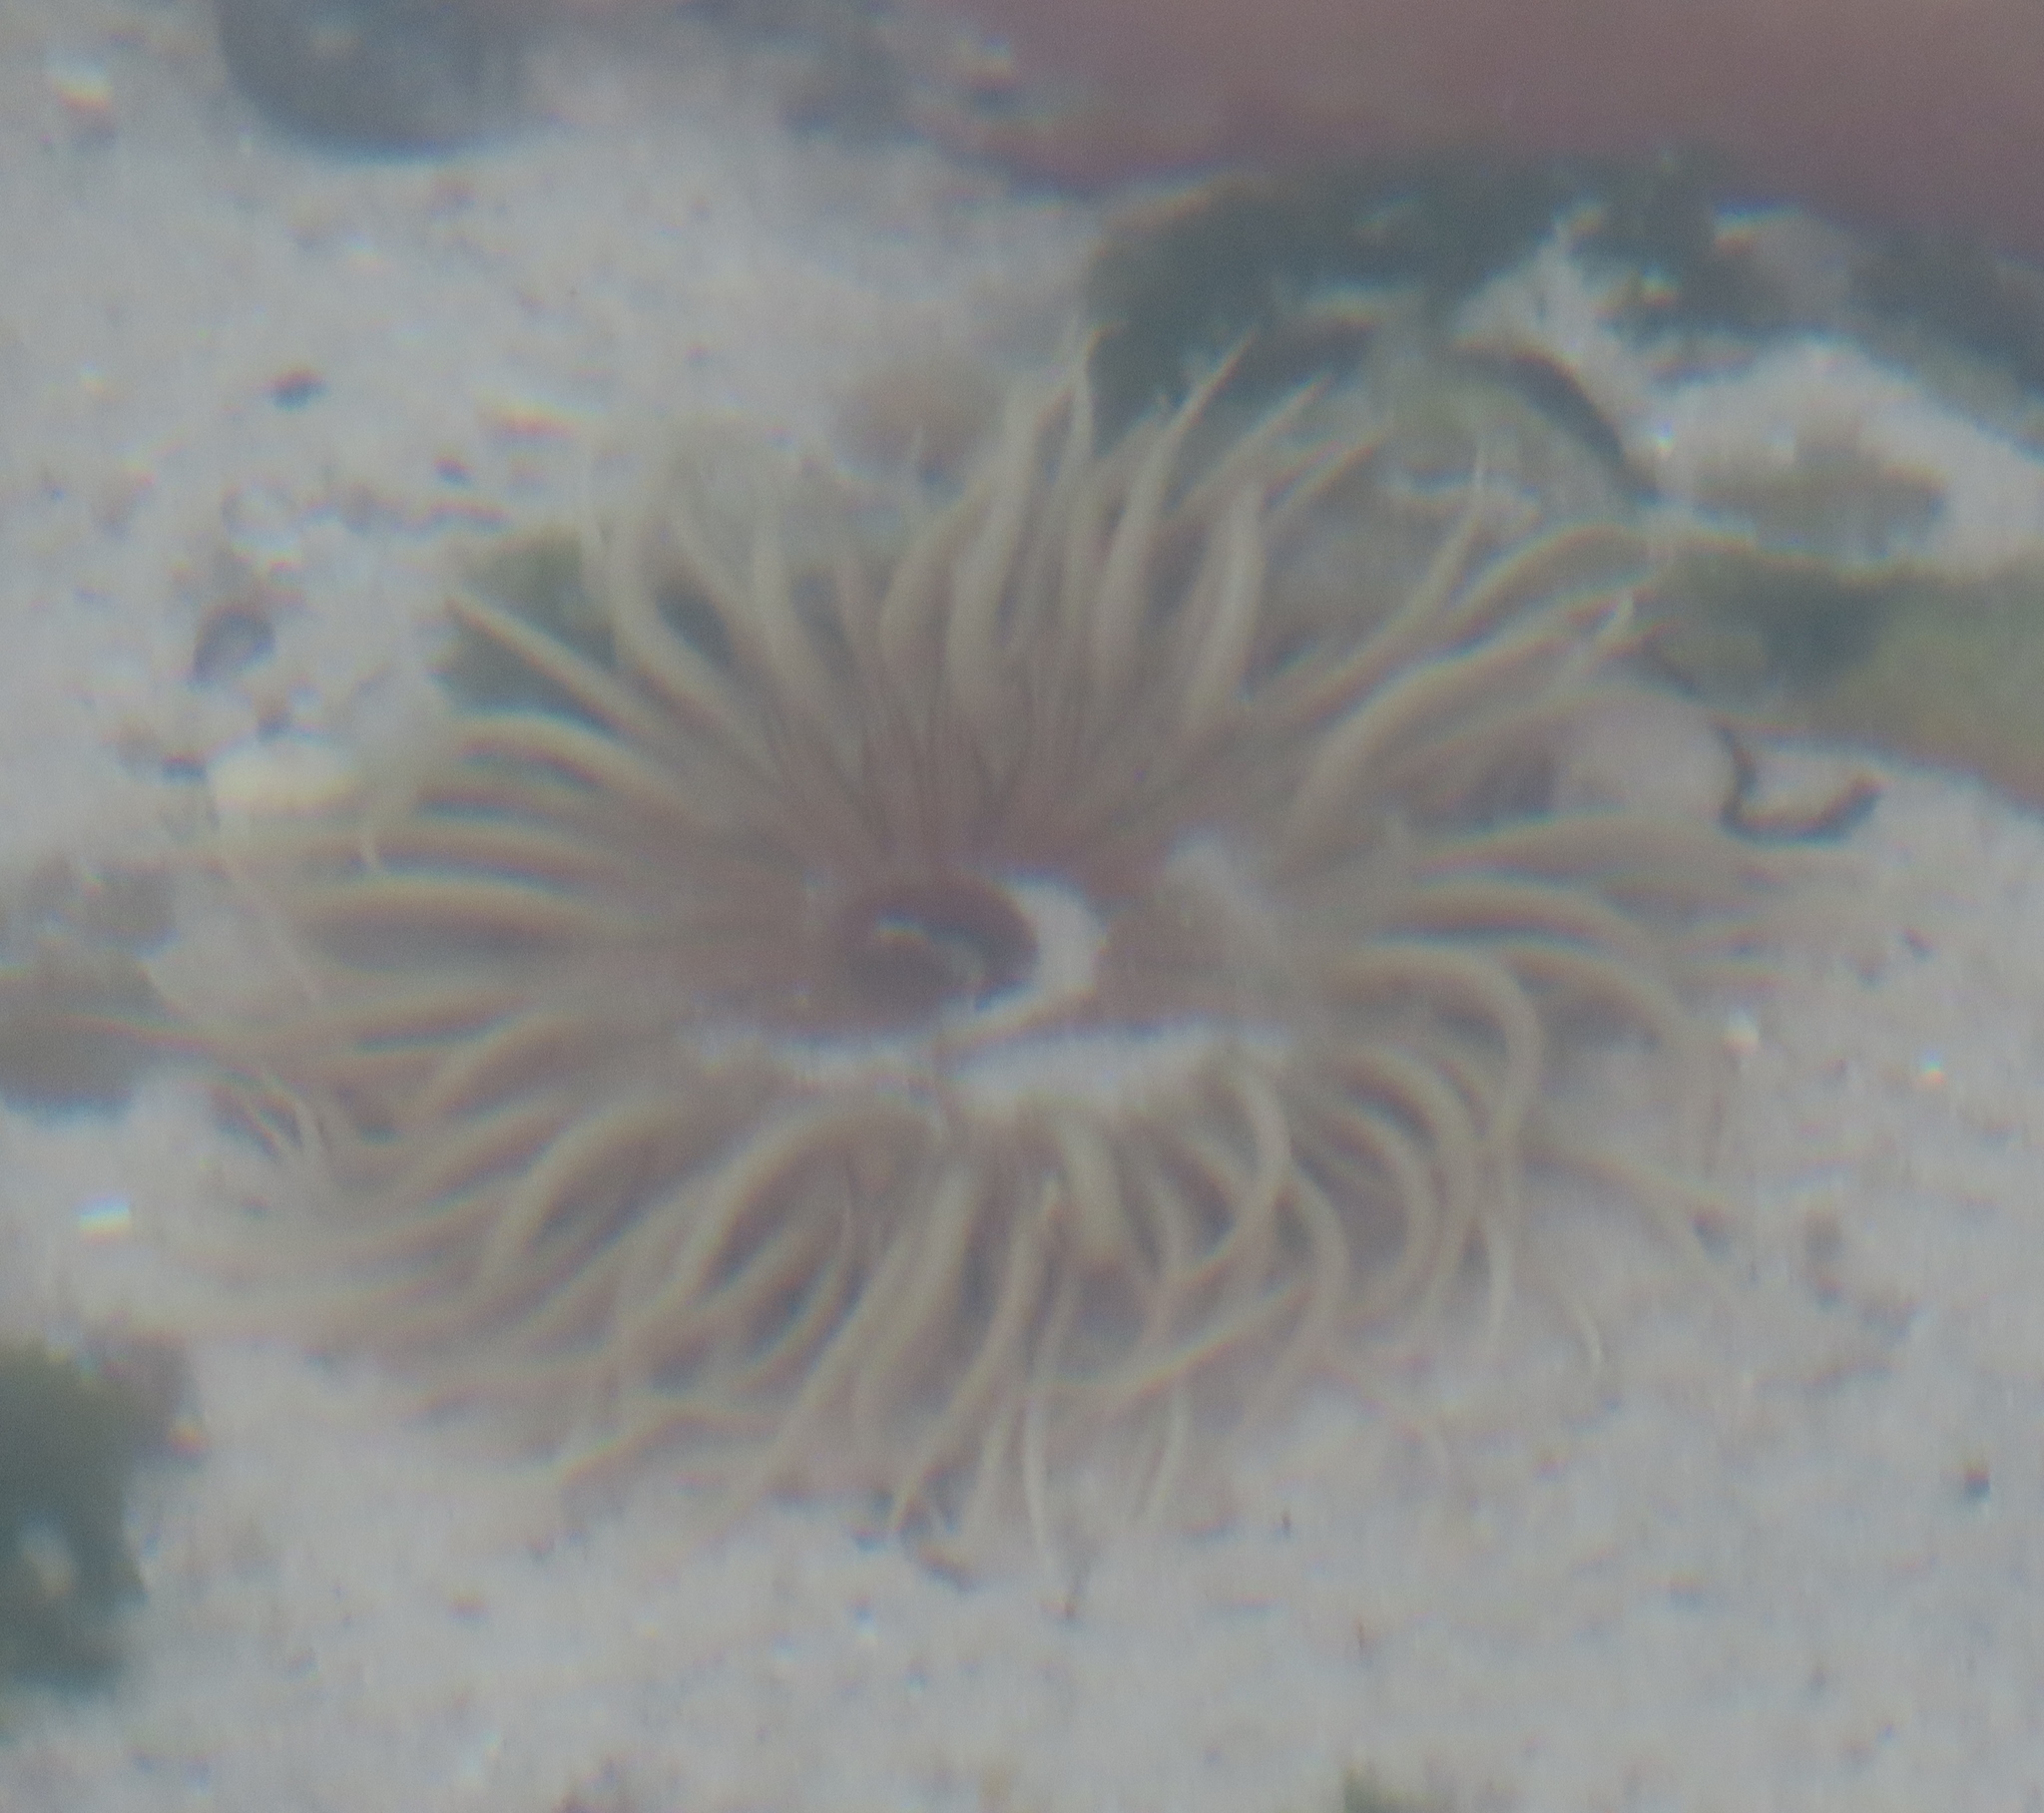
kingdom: Animalia
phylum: Cnidaria
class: Anthozoa
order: Actiniaria
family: Actiniidae
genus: Anthopleura
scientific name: Anthopleura michaelseni
